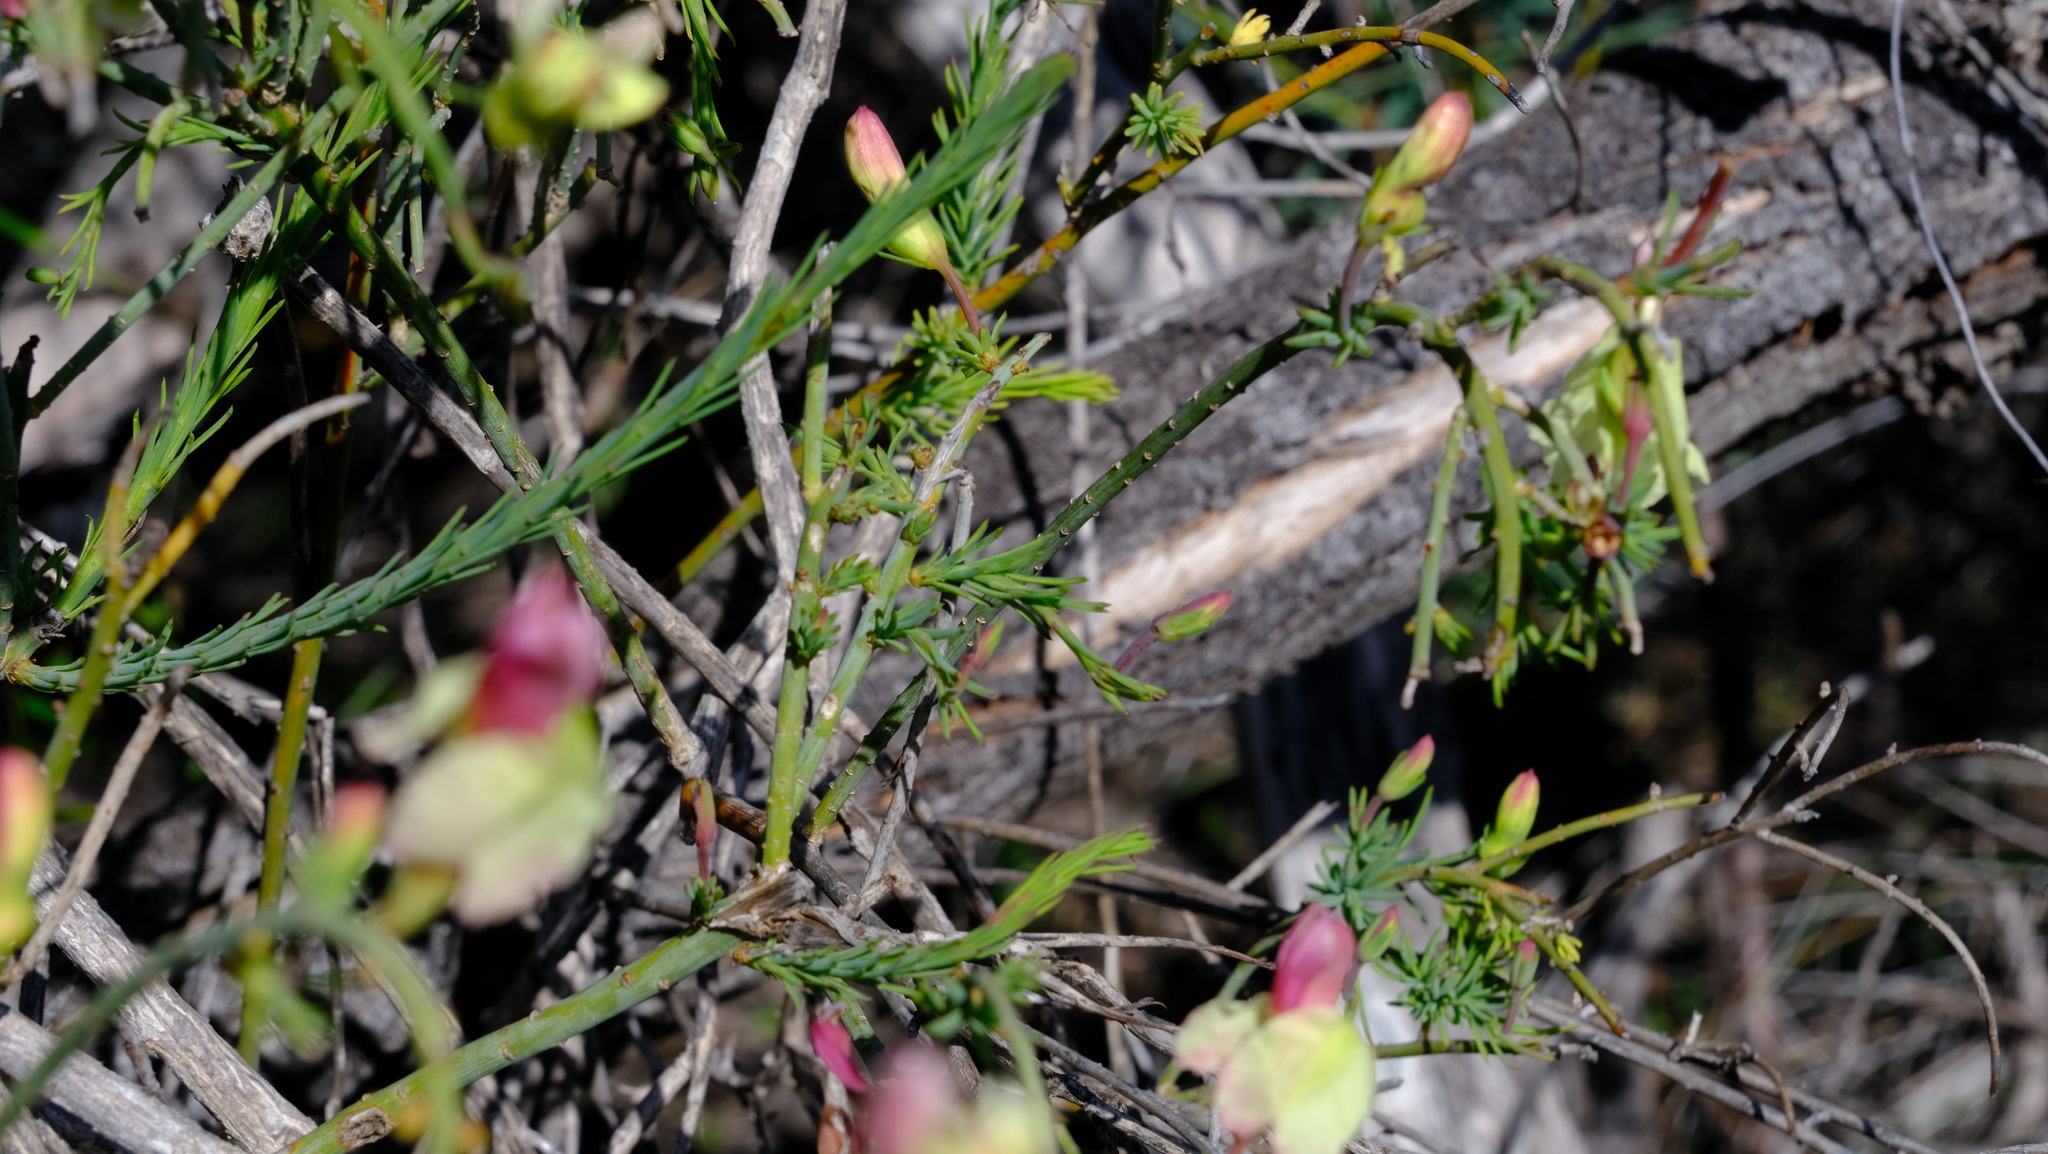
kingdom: Plantae
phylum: Tracheophyta
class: Magnoliopsida
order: Asterales
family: Goodeniaceae
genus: Lechenaultia
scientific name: Lechenaultia linarioides
